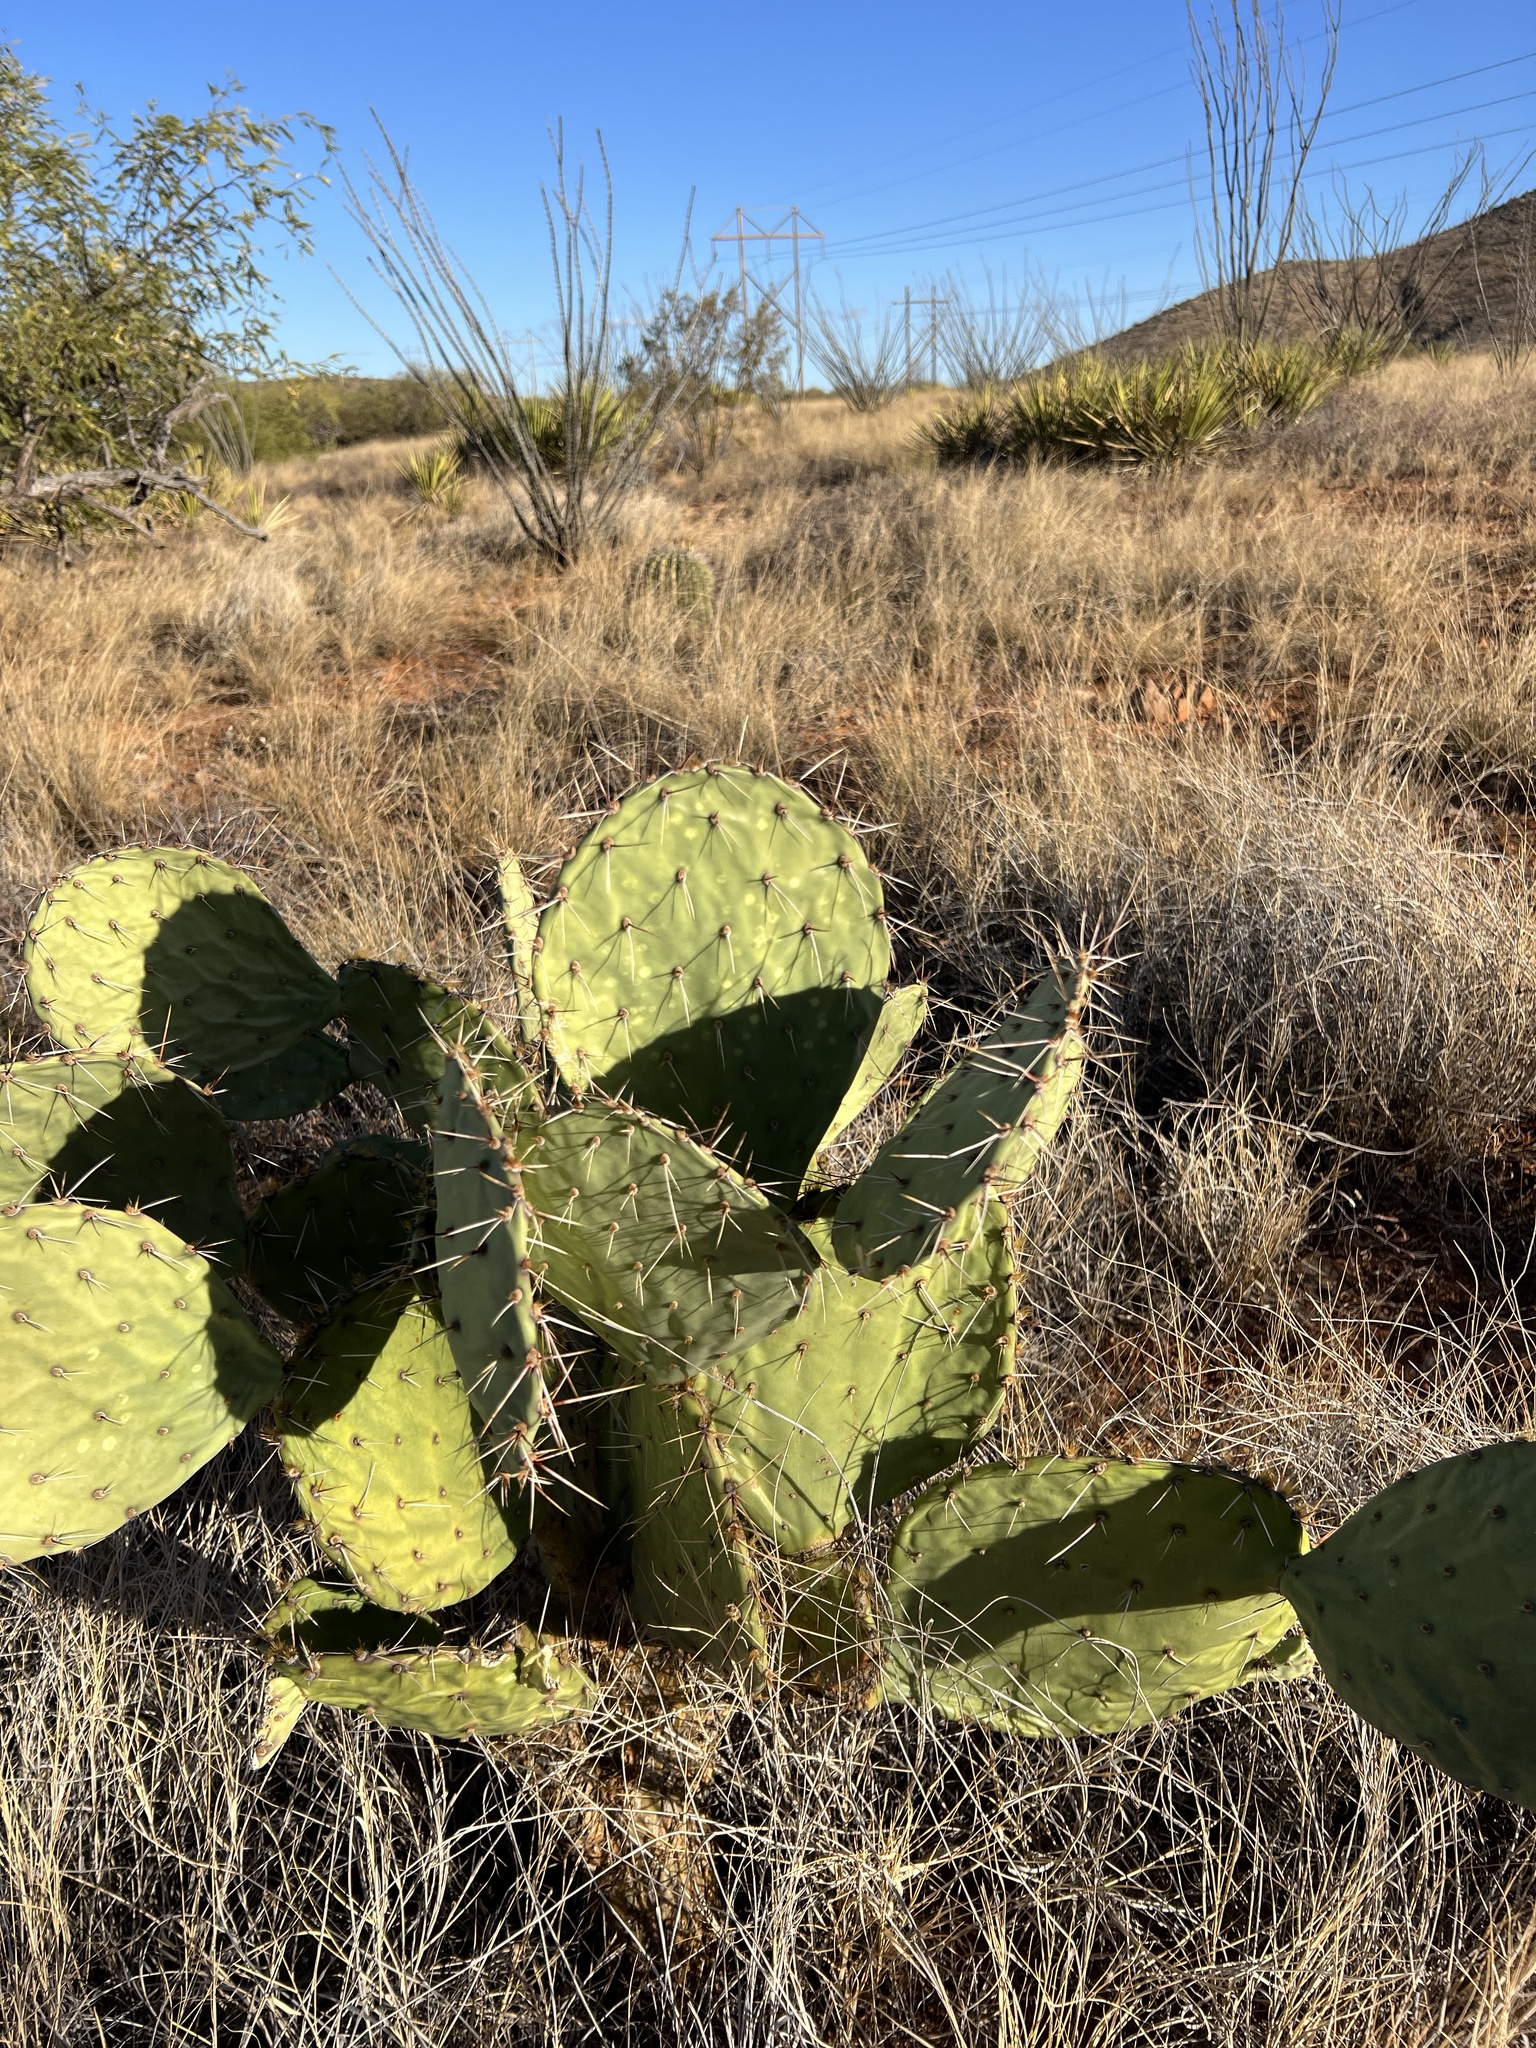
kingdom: Plantae
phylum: Tracheophyta
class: Magnoliopsida
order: Caryophyllales
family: Cactaceae
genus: Opuntia
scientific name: Opuntia engelmannii
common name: Cactus-apple
